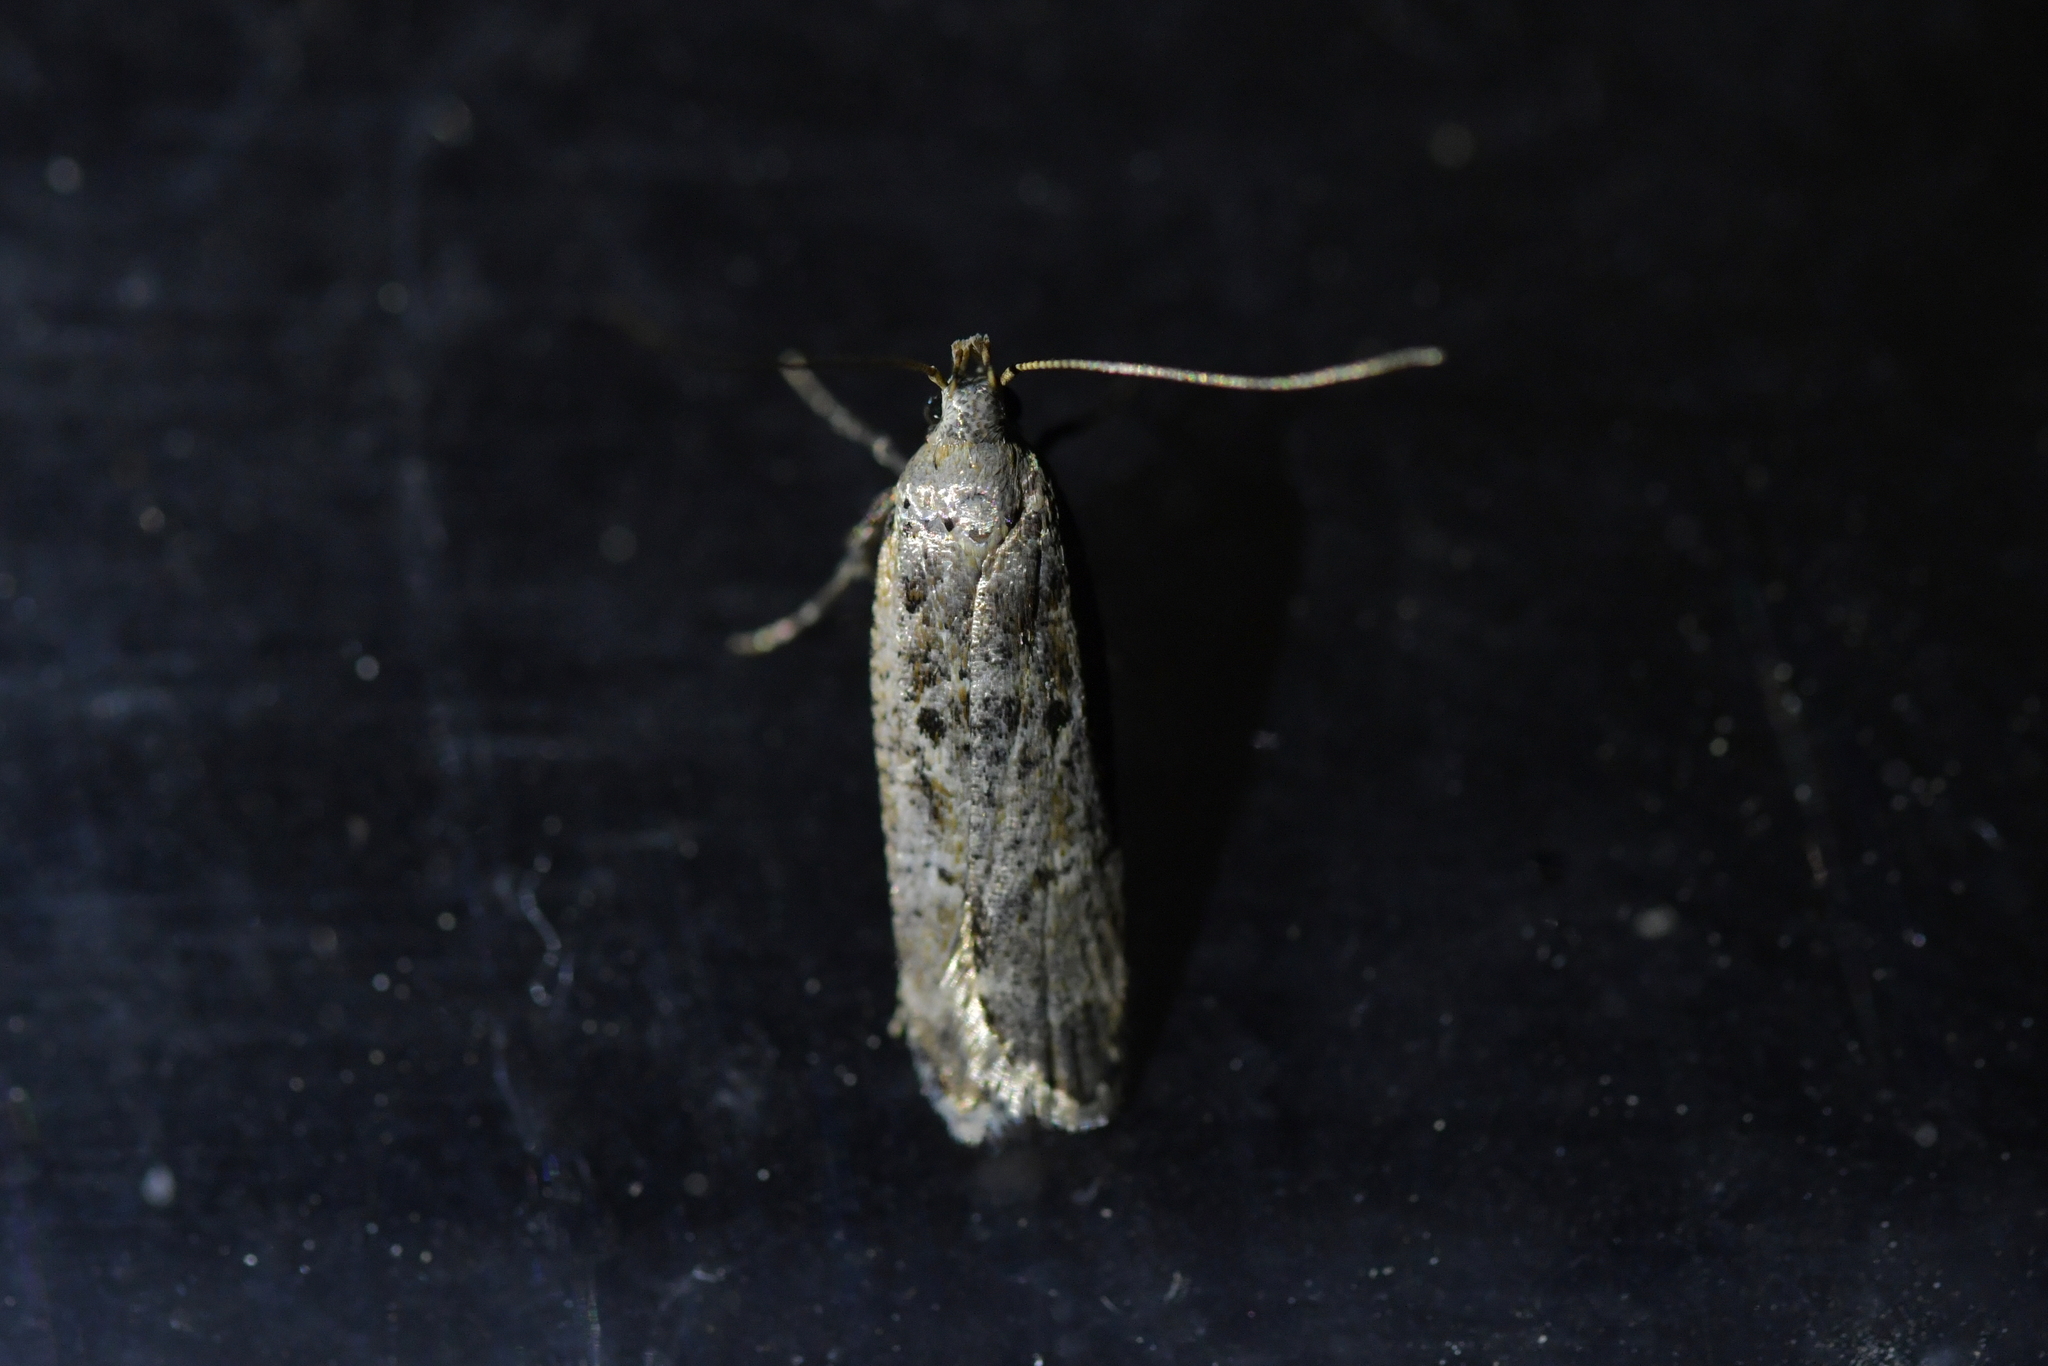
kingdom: Animalia
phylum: Arthropoda
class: Insecta
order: Lepidoptera
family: Gelechiidae
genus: Anisoplaca
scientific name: Anisoplaca achyrota
